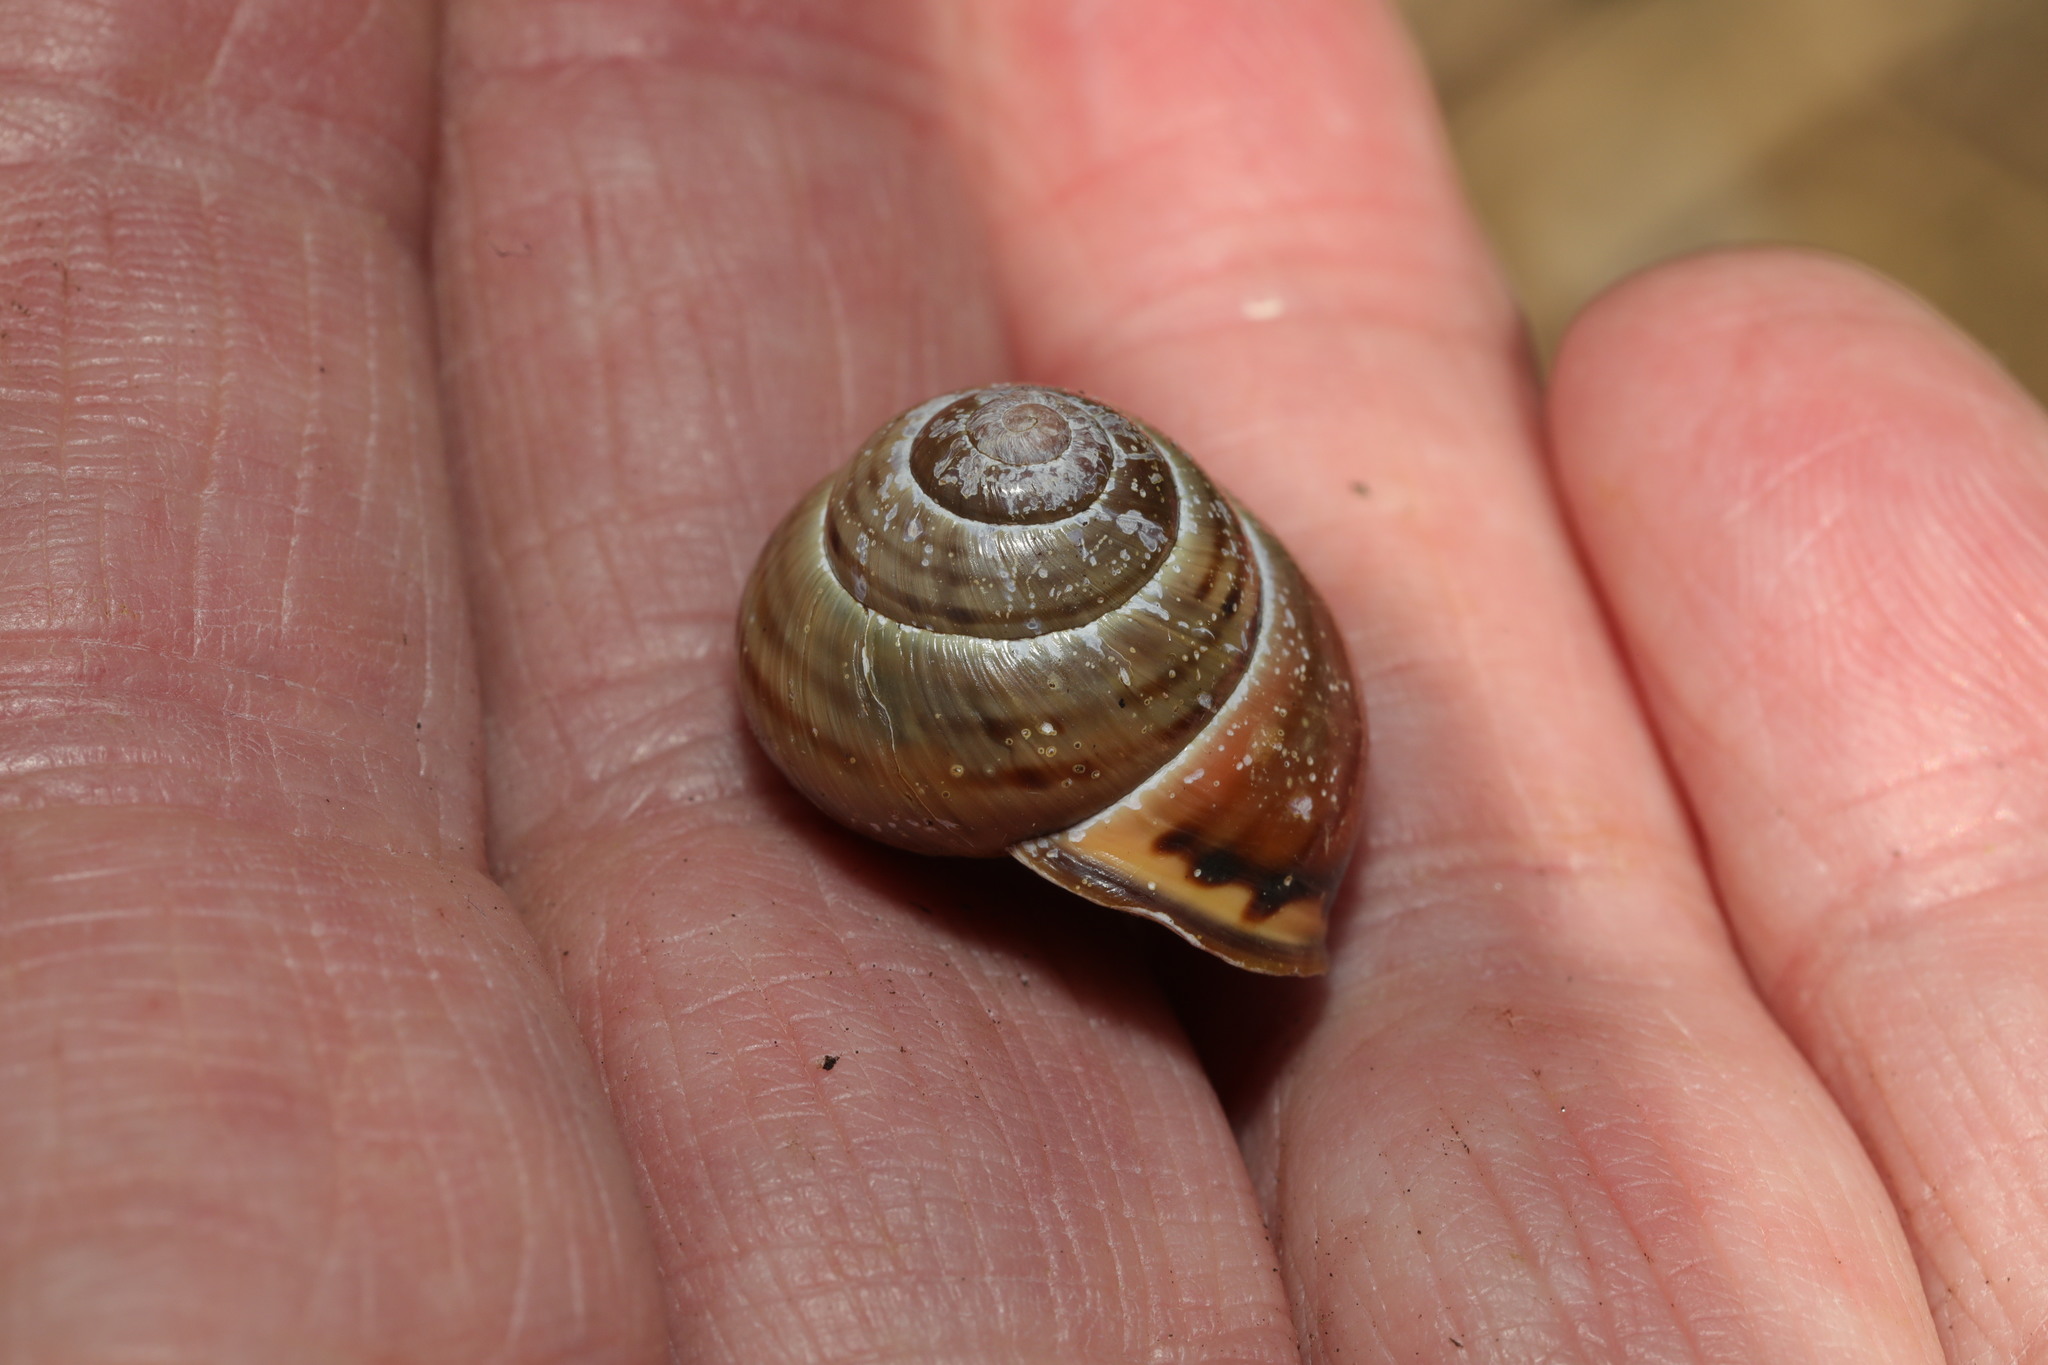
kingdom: Animalia
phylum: Mollusca
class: Gastropoda
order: Stylommatophora
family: Helicidae
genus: Cepaea
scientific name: Cepaea nemoralis
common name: Grovesnail
